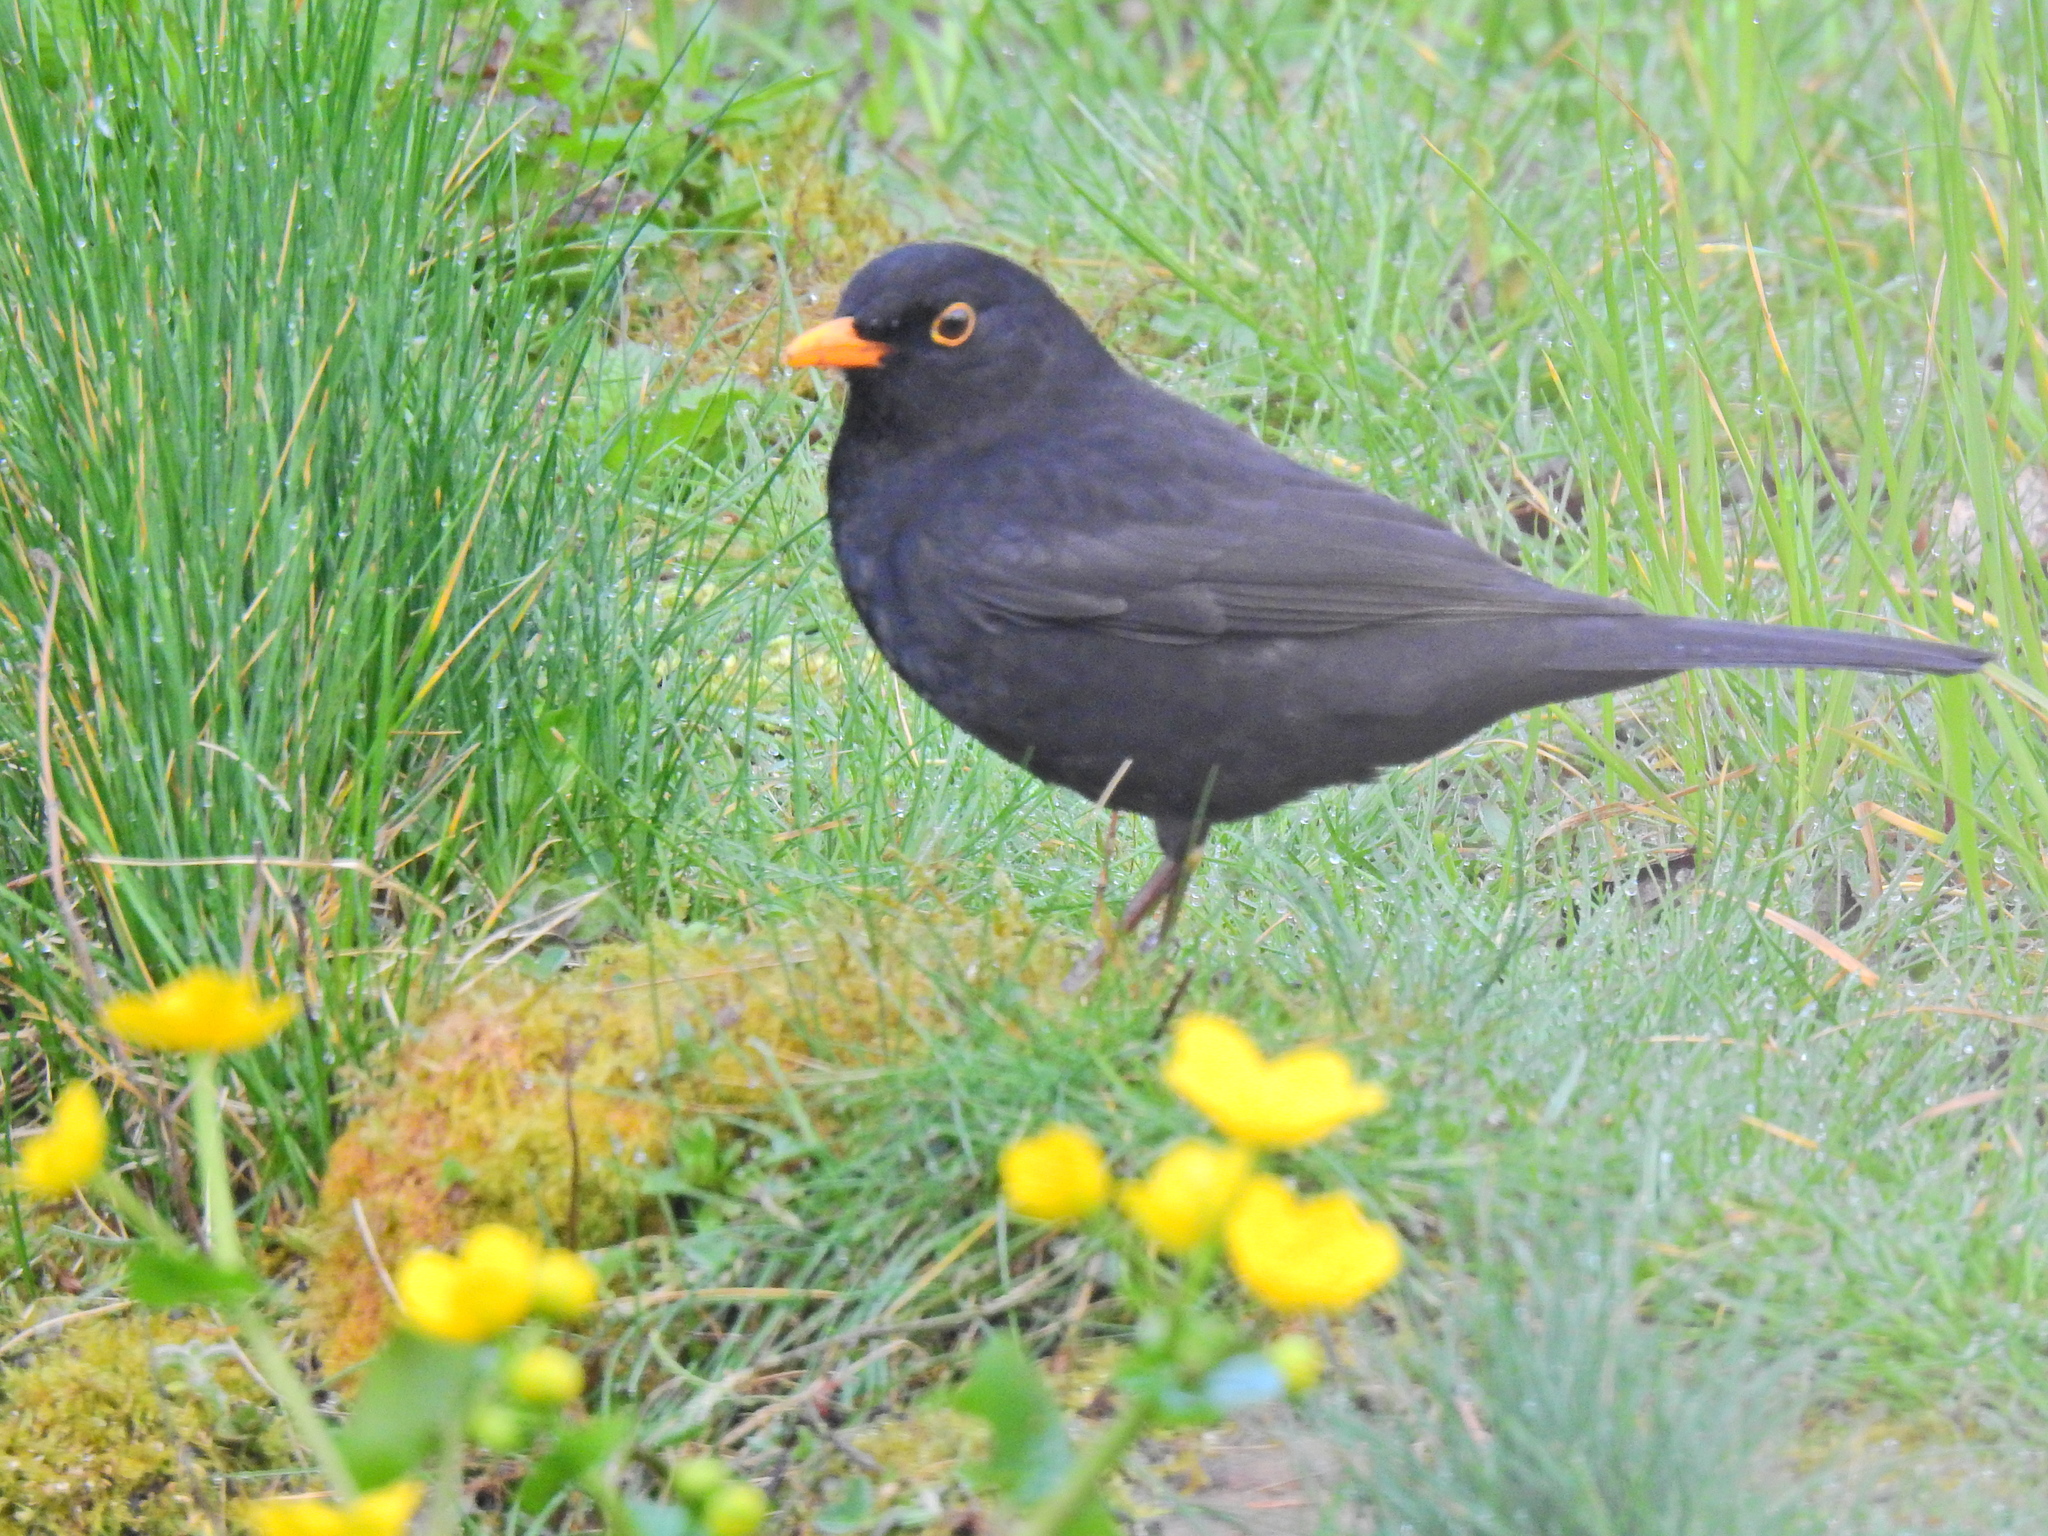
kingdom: Animalia
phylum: Chordata
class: Aves
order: Passeriformes
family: Turdidae
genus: Turdus
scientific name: Turdus merula
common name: Common blackbird
